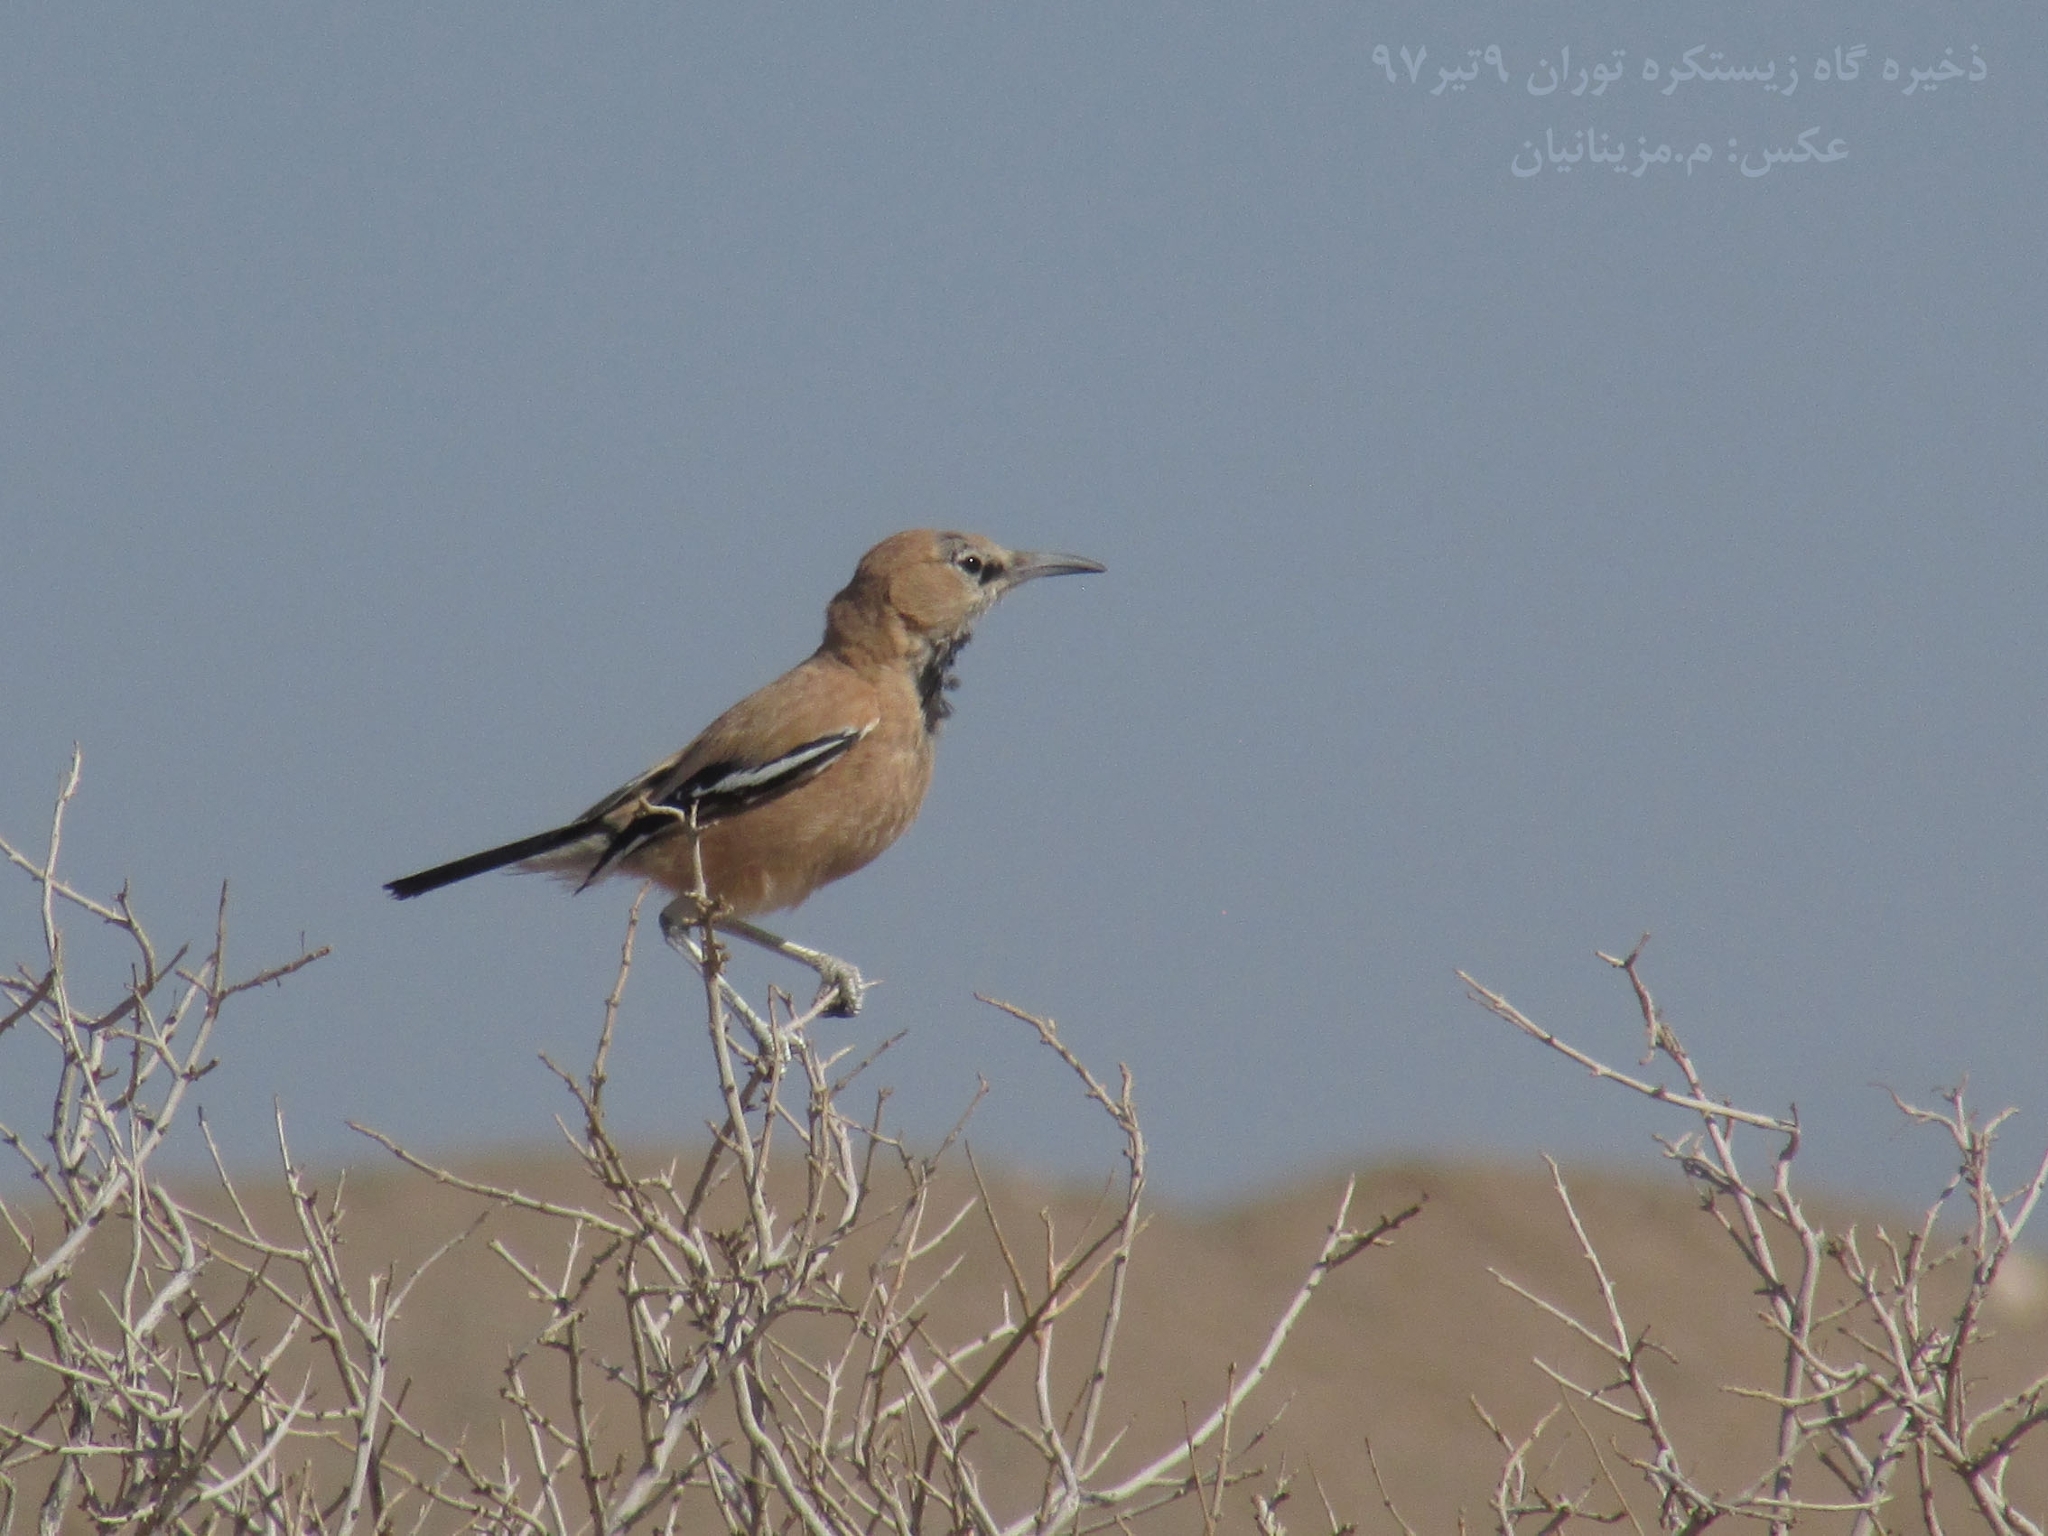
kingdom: Animalia
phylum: Chordata
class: Aves
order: Passeriformes
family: Corvidae
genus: Podoces
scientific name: Podoces pleskei
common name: Pleske's ground jay
